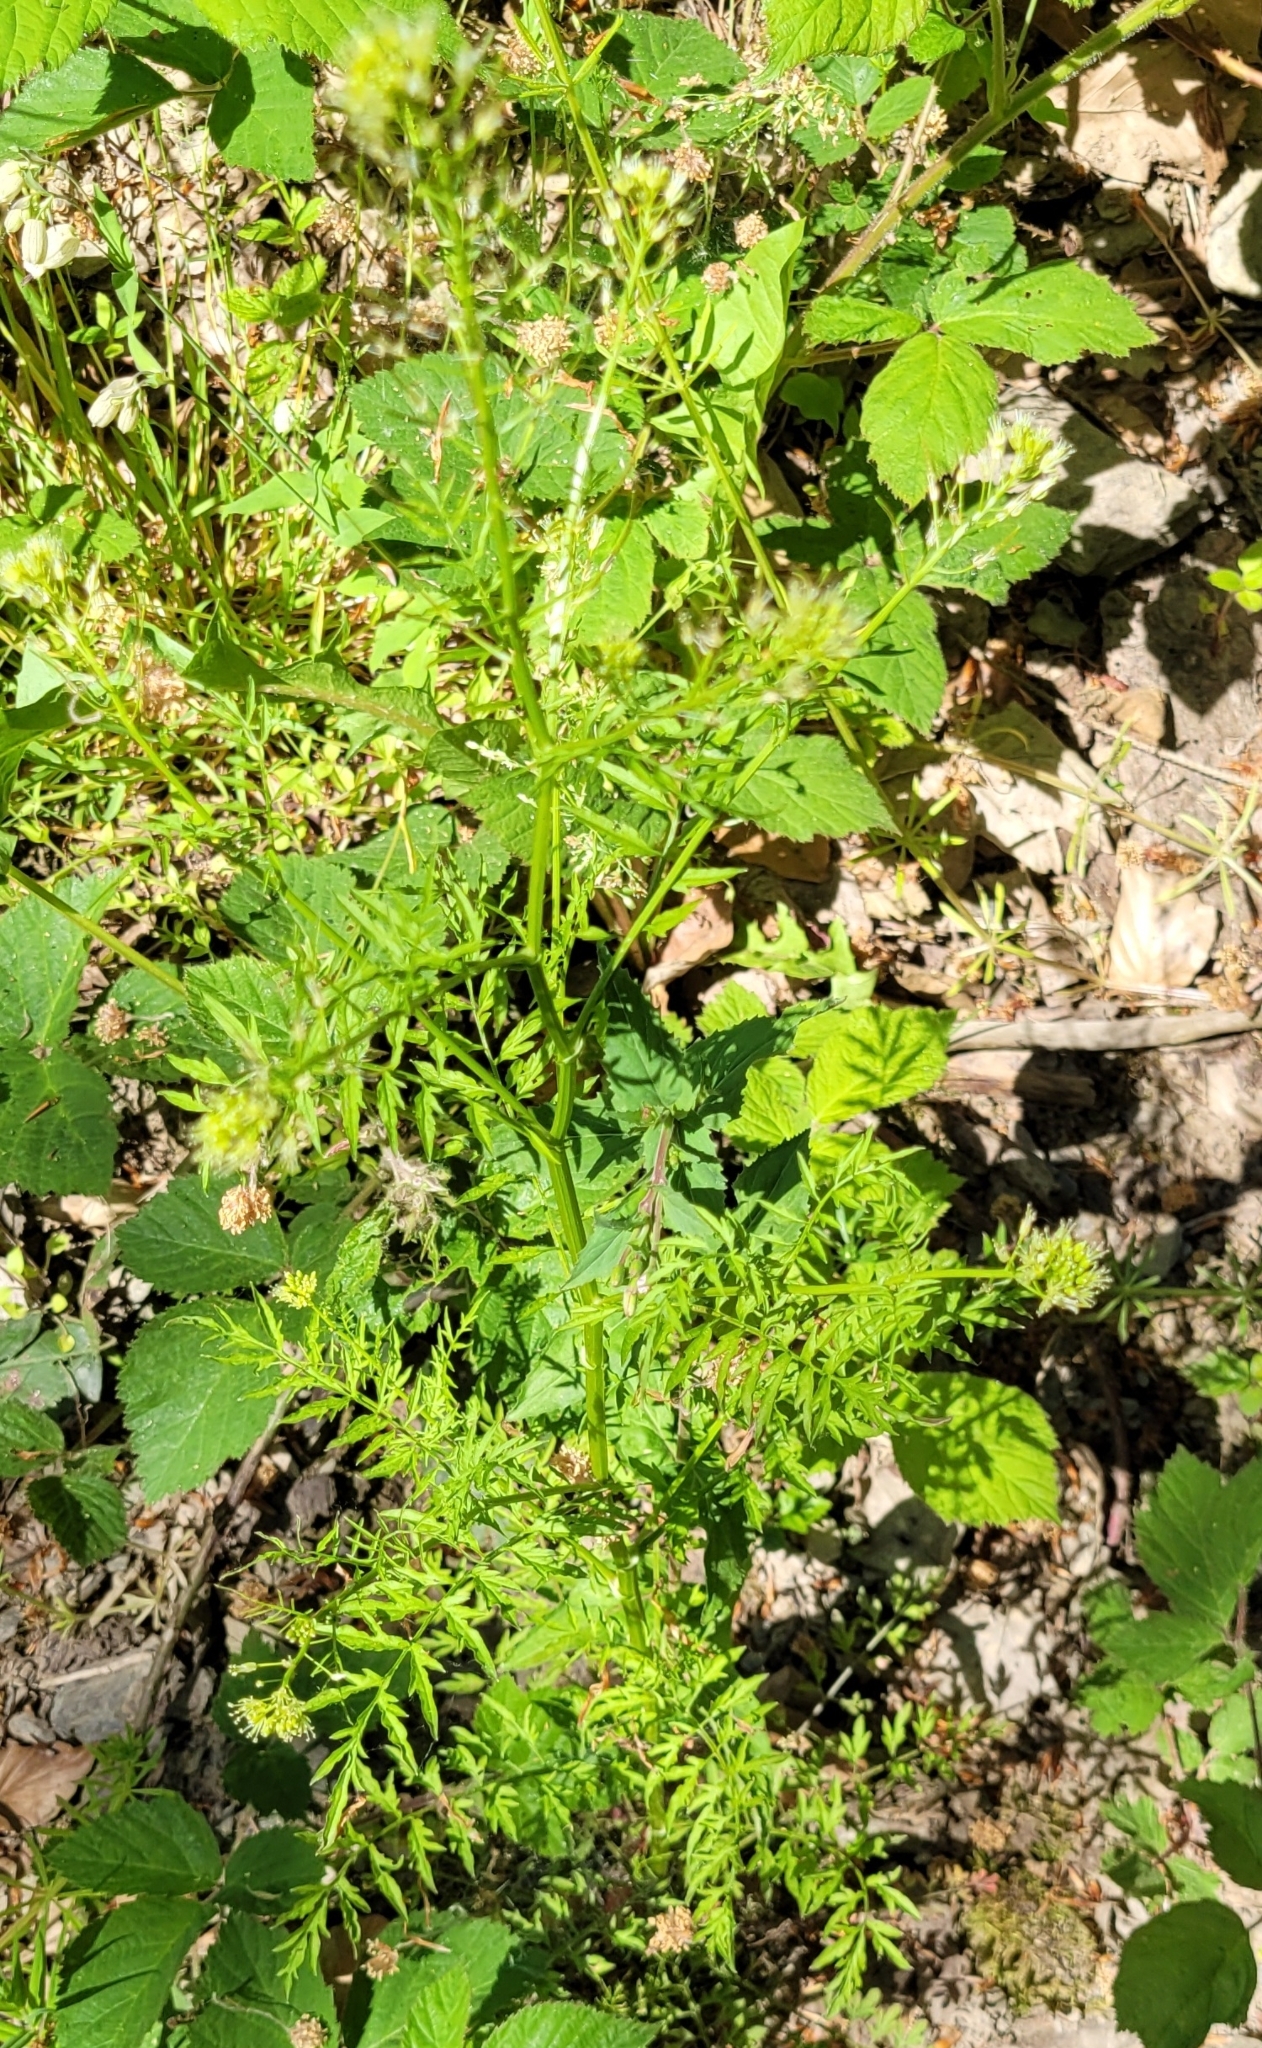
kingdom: Plantae
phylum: Tracheophyta
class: Magnoliopsida
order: Brassicales
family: Brassicaceae
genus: Cardamine
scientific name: Cardamine impatiens
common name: Narrow-leaved bitter-cress
